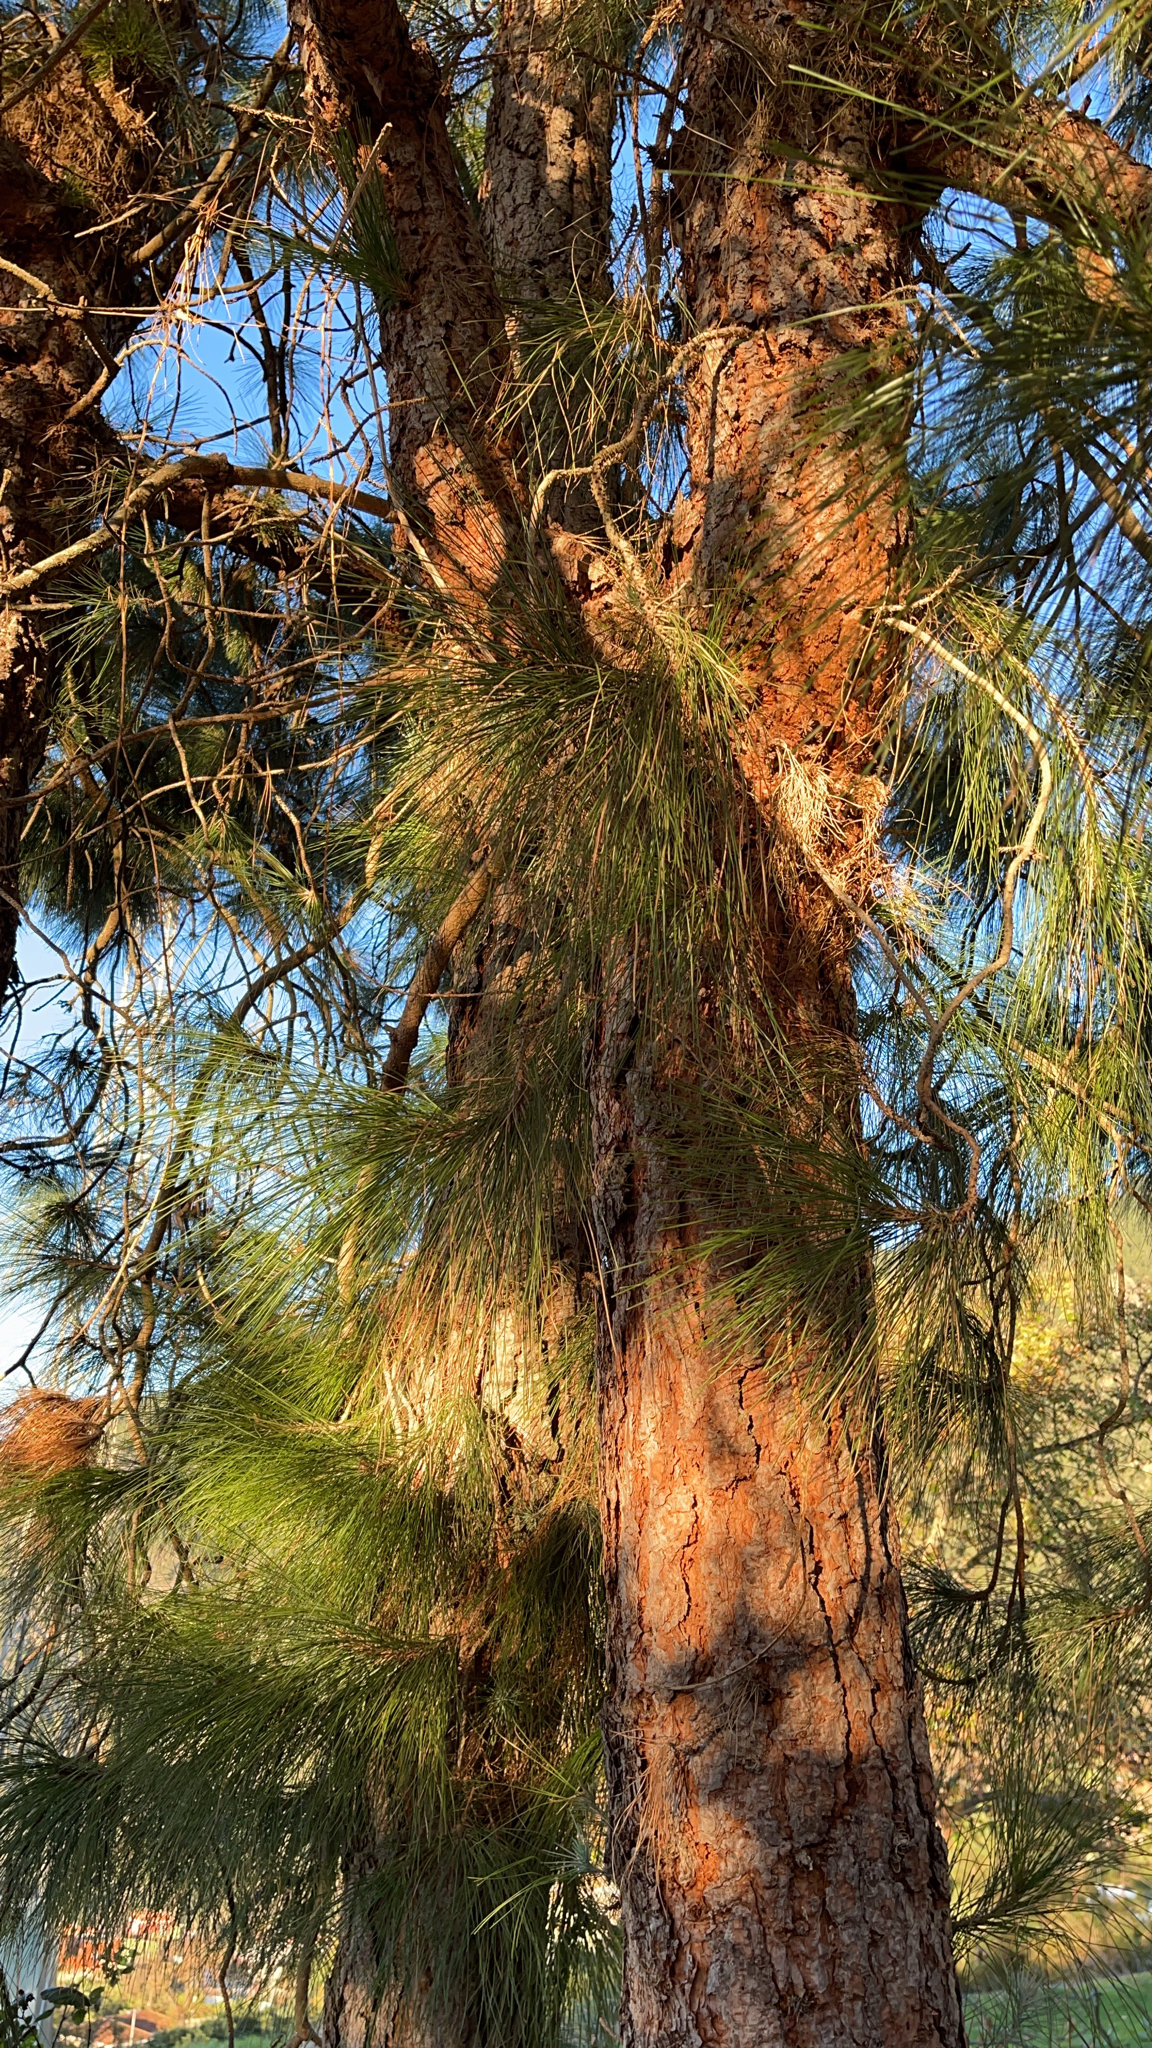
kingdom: Plantae
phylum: Tracheophyta
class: Pinopsida
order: Pinales
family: Pinaceae
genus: Pinus
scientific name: Pinus canariensis
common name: Canary islands pine
